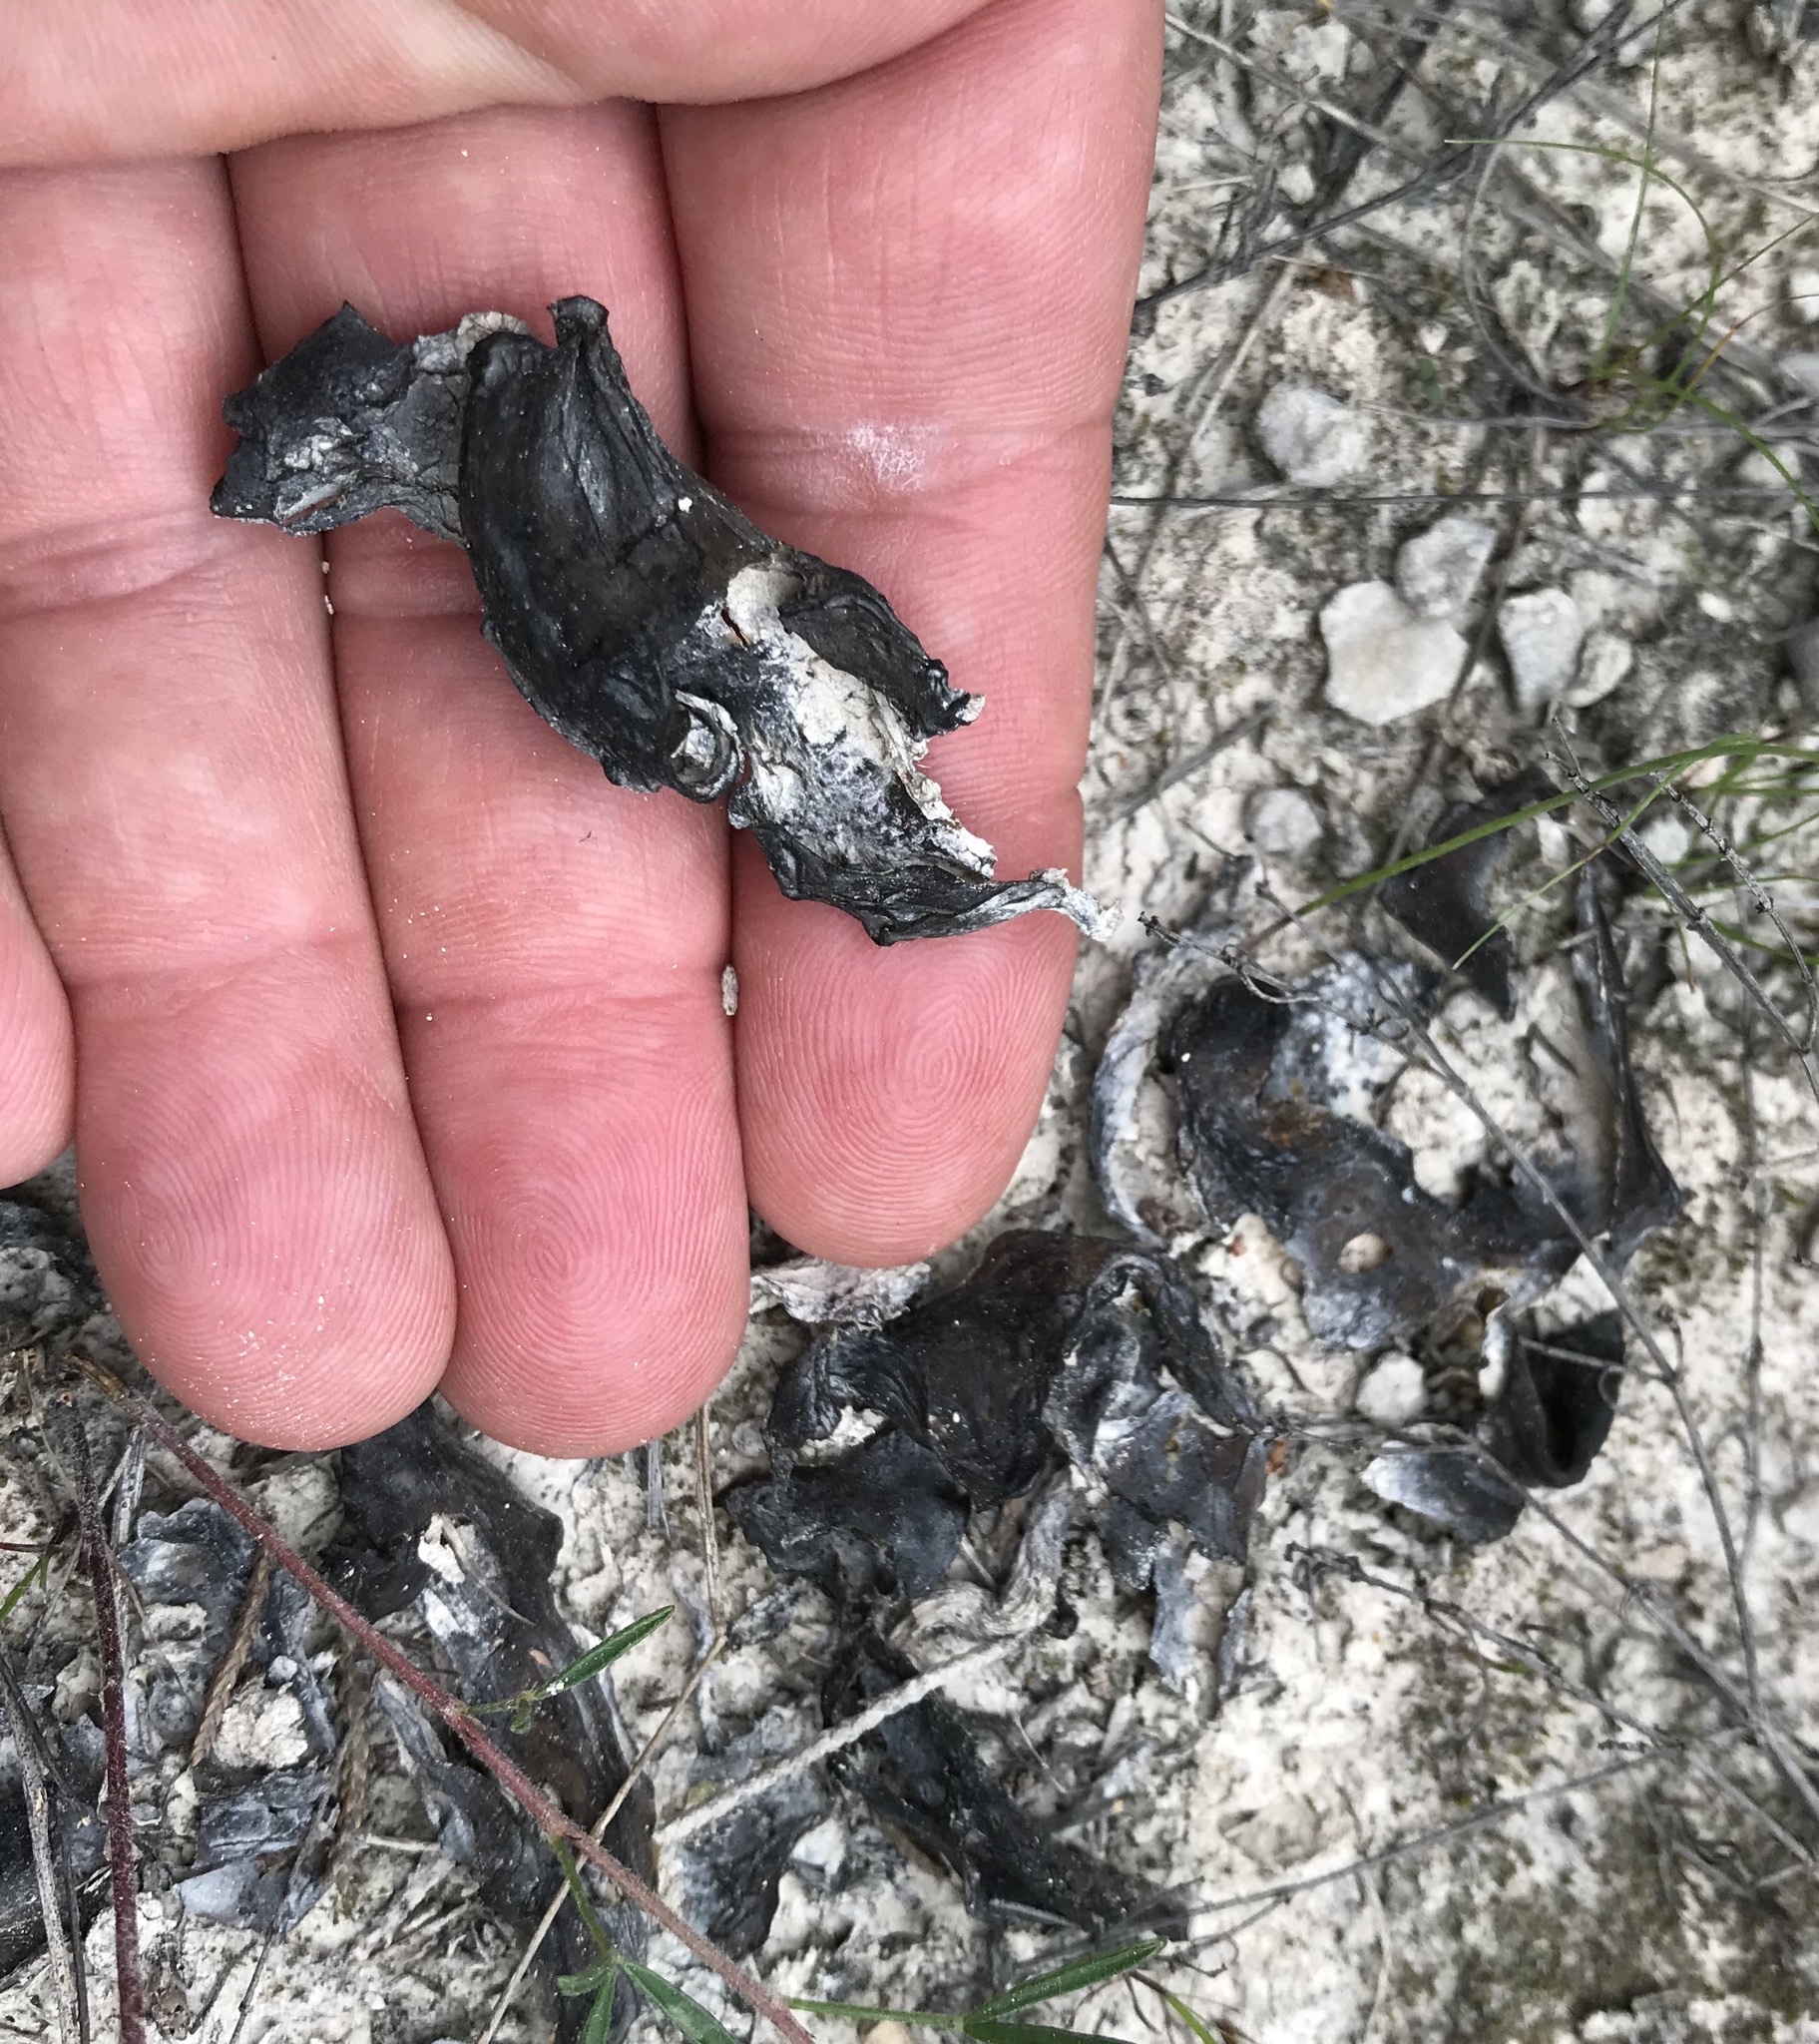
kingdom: Bacteria
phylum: Cyanobacteria
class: Cyanobacteriia
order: Cyanobacteriales
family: Nostocaceae
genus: Nostoc
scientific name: Nostoc commune
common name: Star jelly
